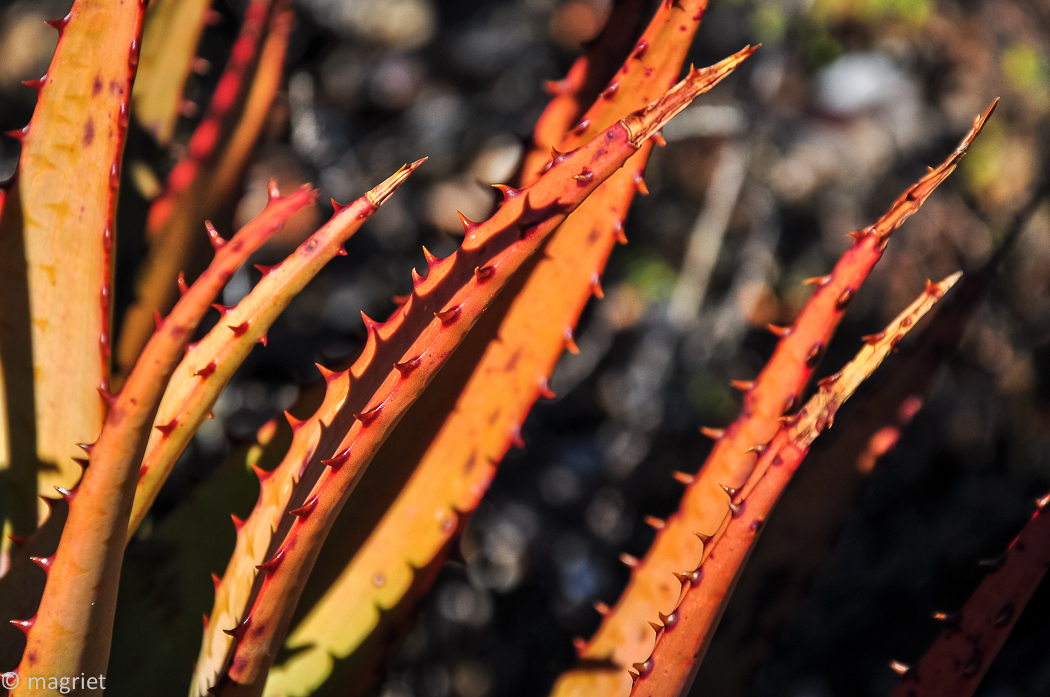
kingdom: Plantae
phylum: Tracheophyta
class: Liliopsida
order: Asparagales
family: Asphodelaceae
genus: Aloe
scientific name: Aloe microstigma
